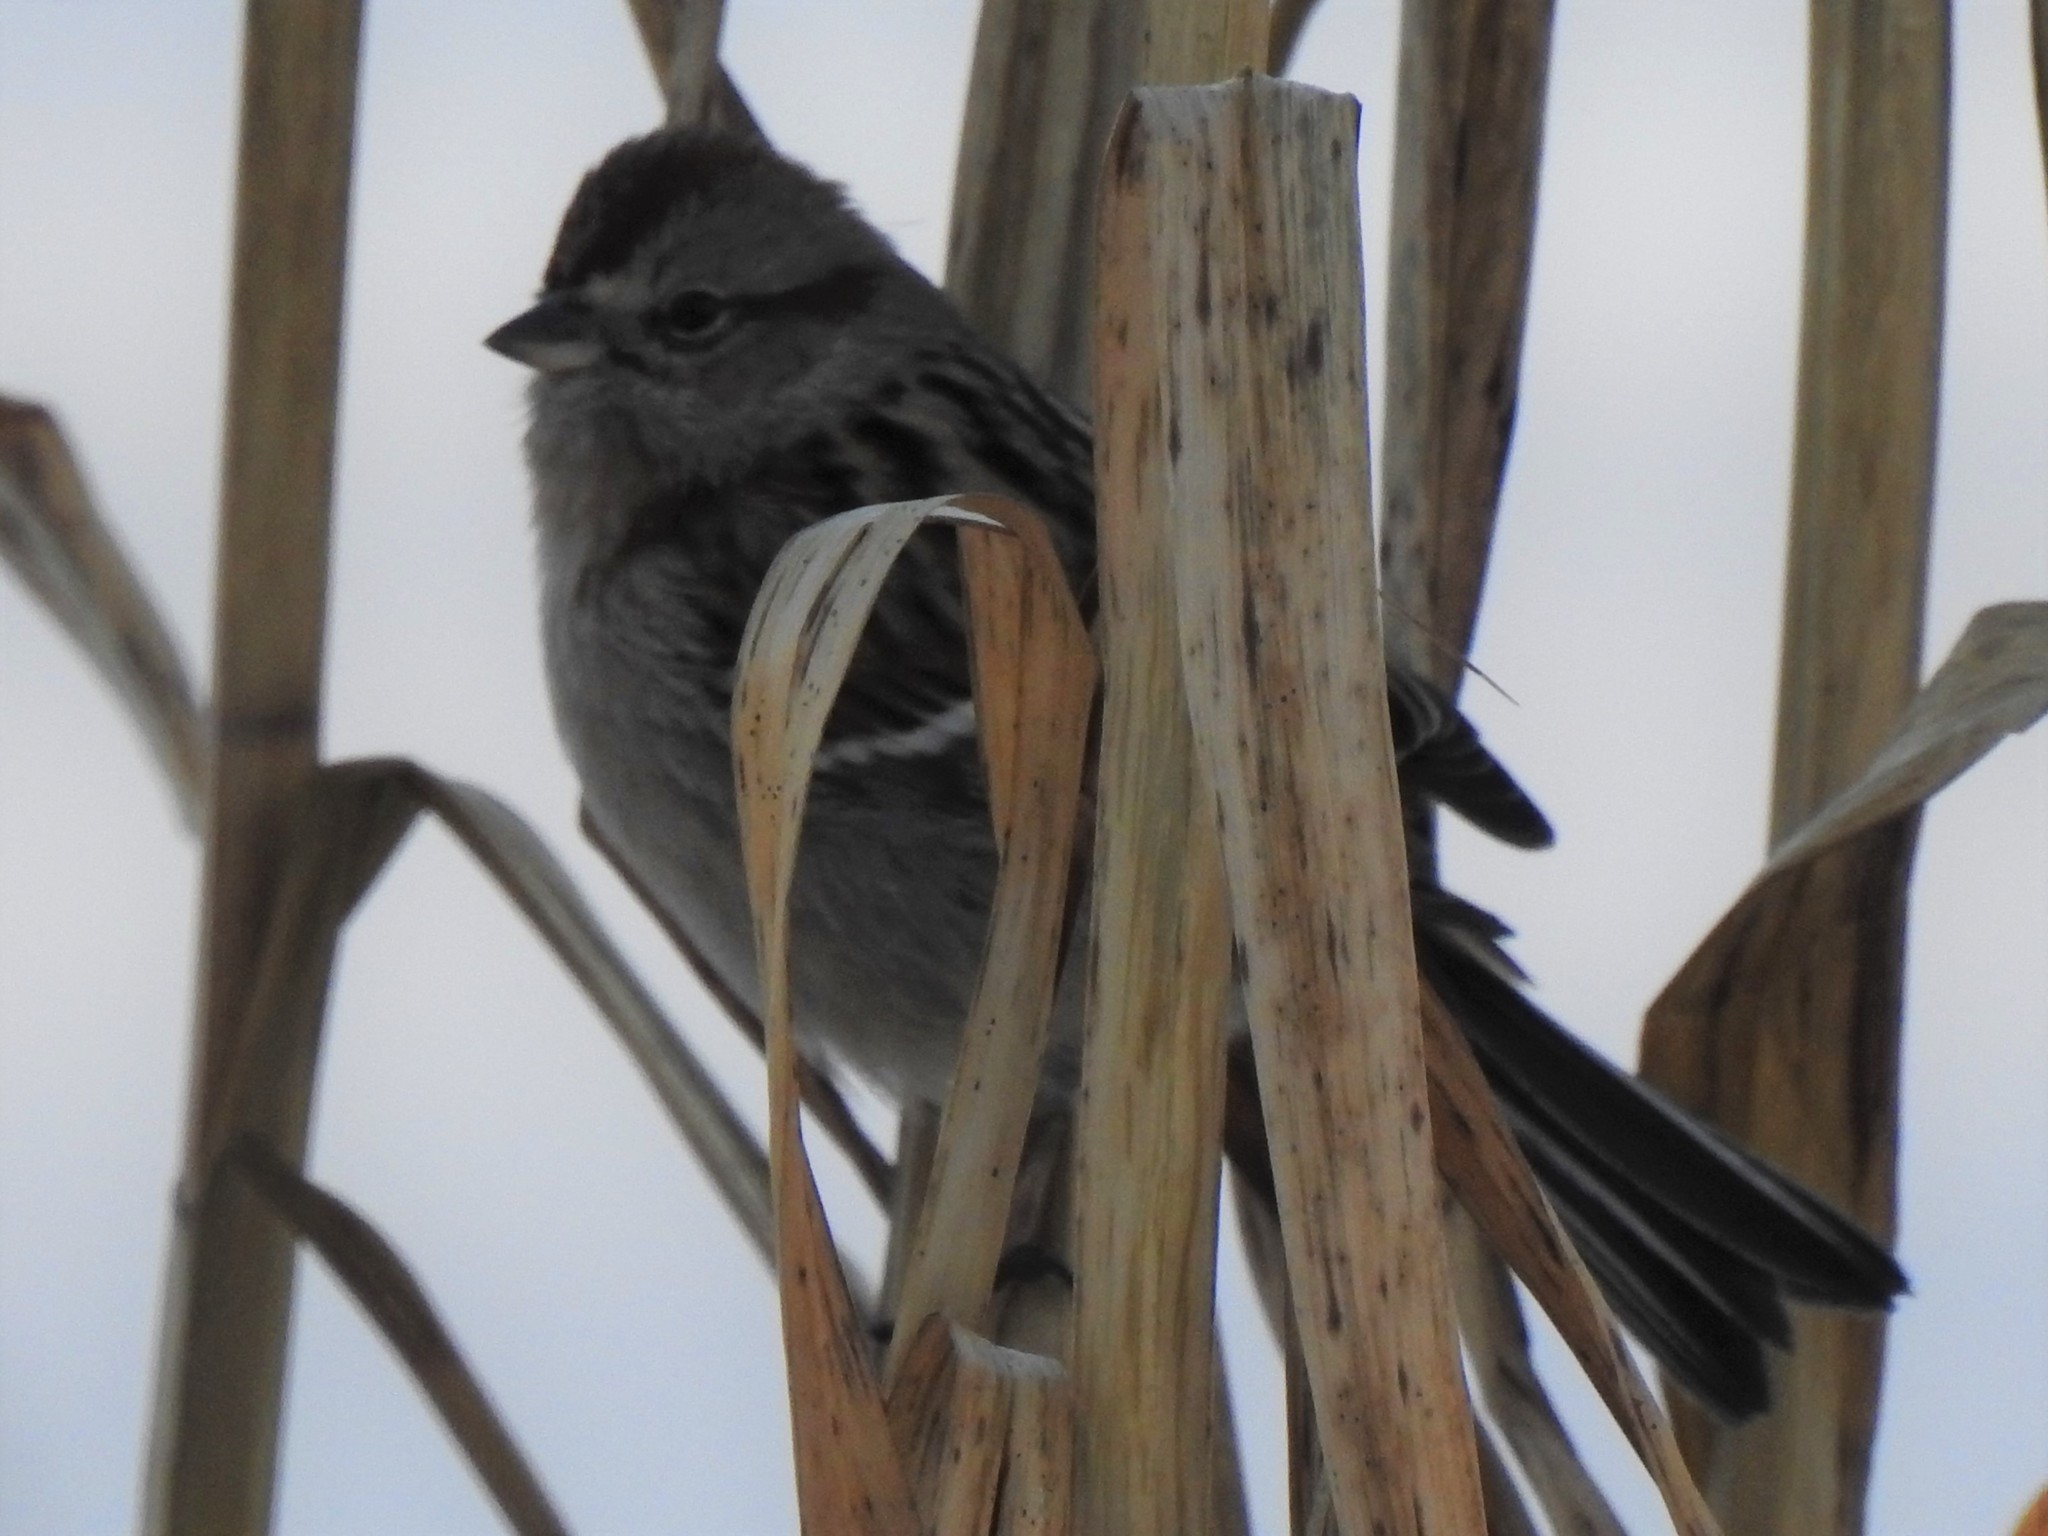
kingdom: Animalia
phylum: Chordata
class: Aves
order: Passeriformes
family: Passerellidae
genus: Spizelloides
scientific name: Spizelloides arborea
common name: American tree sparrow
